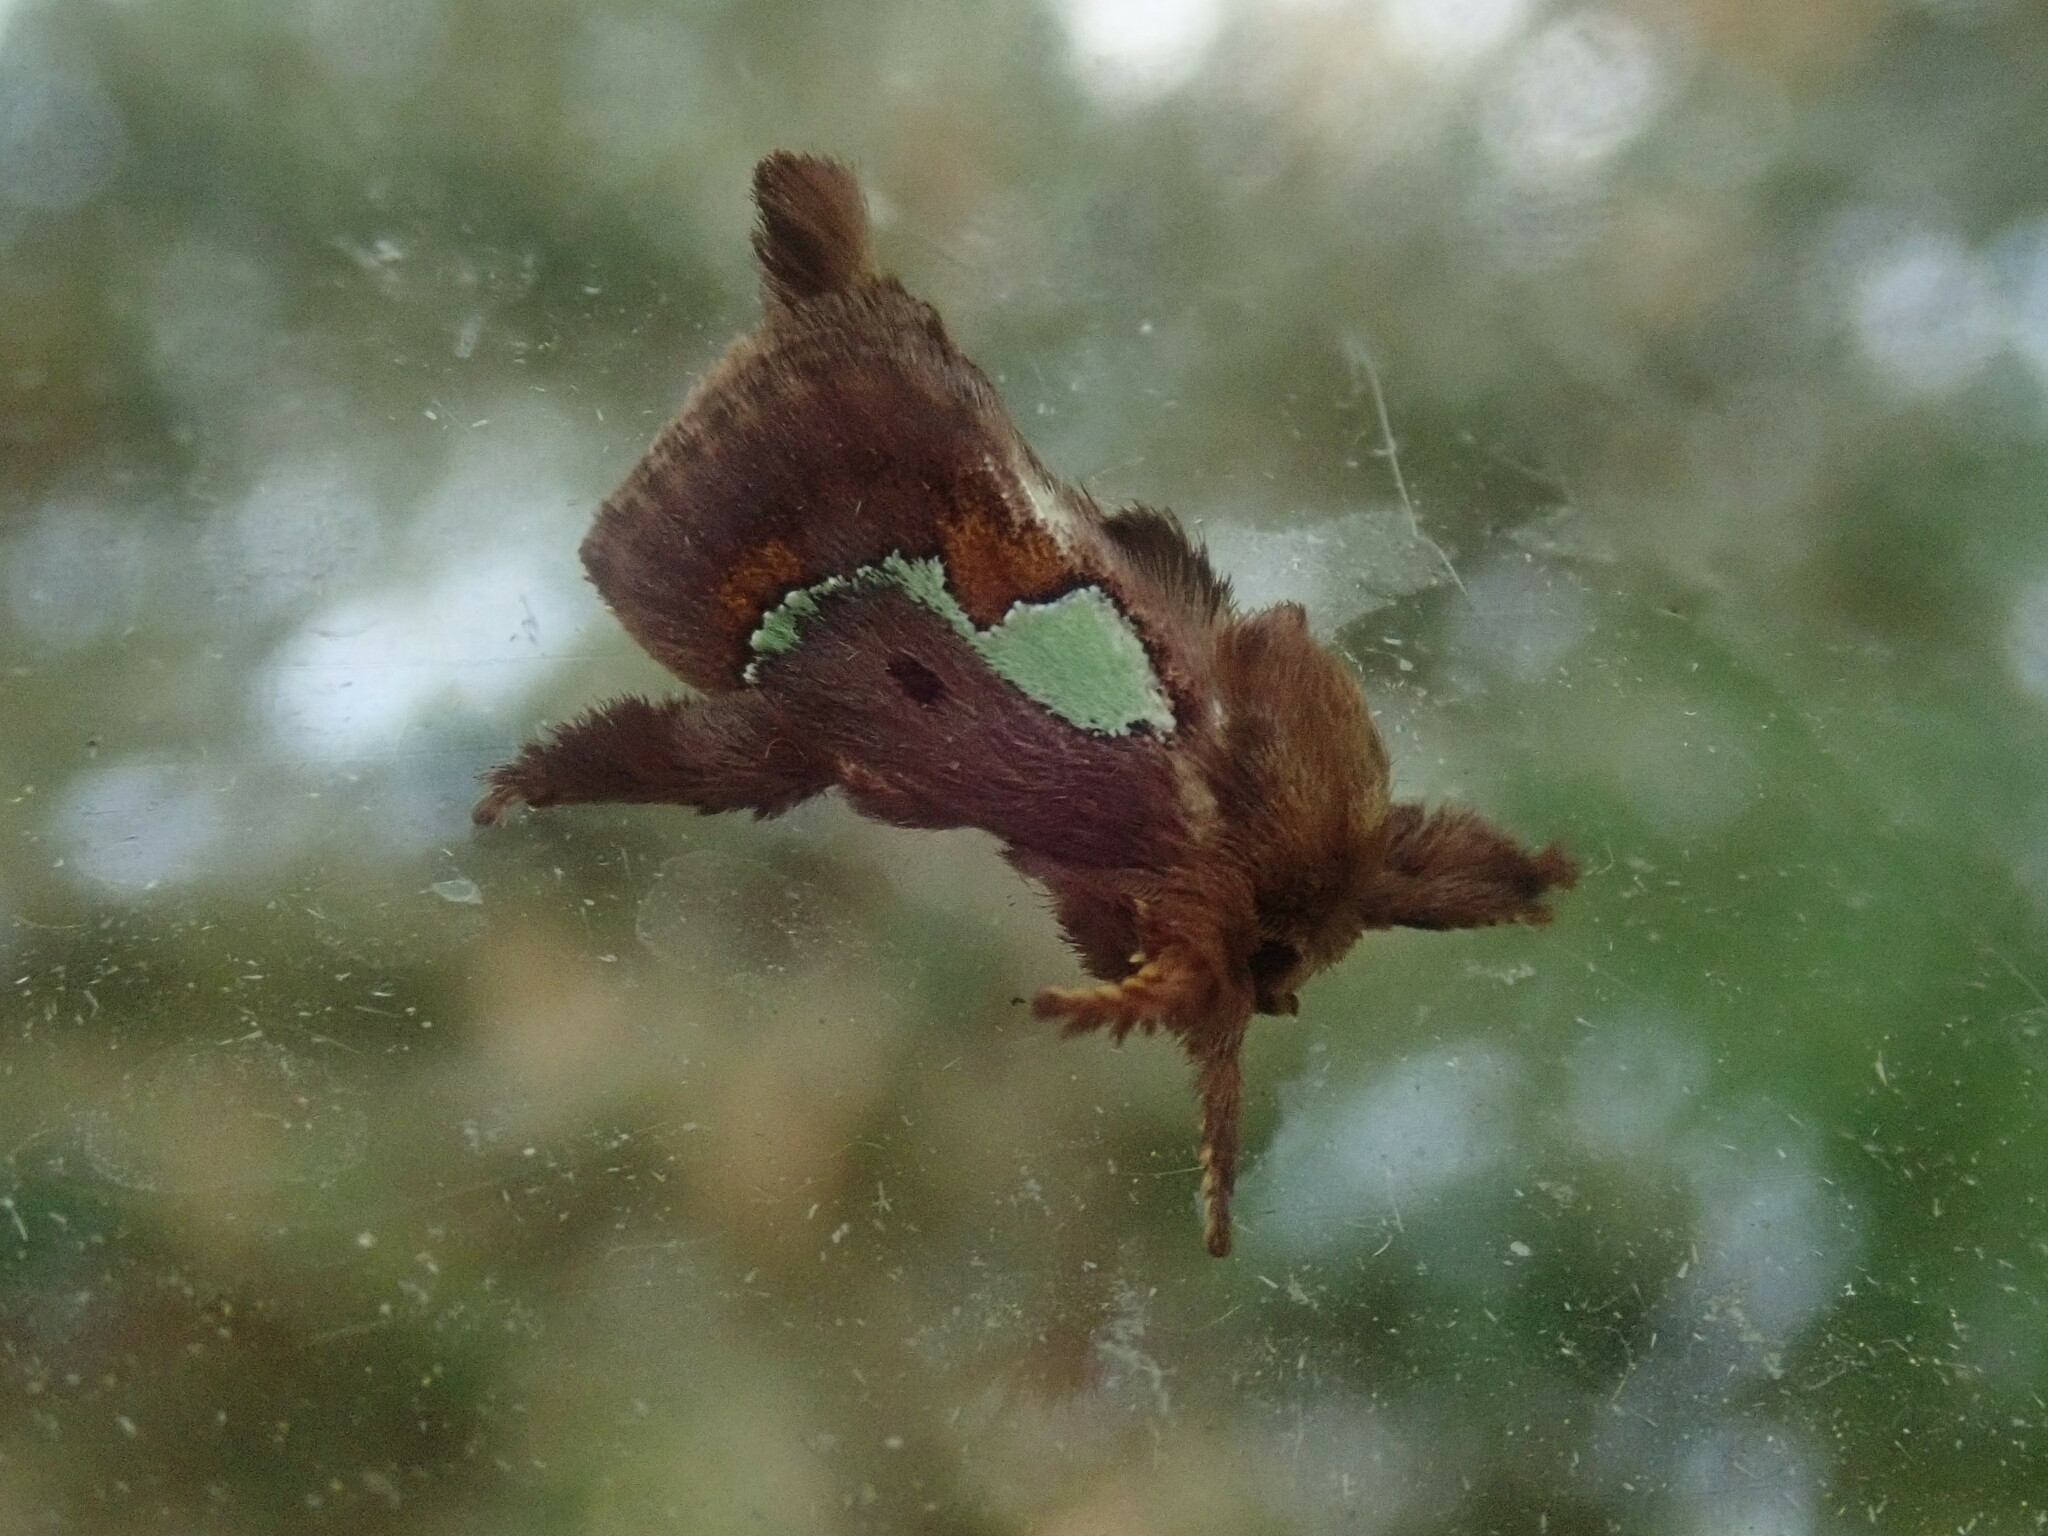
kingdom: Animalia
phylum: Arthropoda
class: Insecta
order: Lepidoptera
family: Limacodidae
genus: Euclea
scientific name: Euclea delphinii
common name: Spiny oak-slug moth
